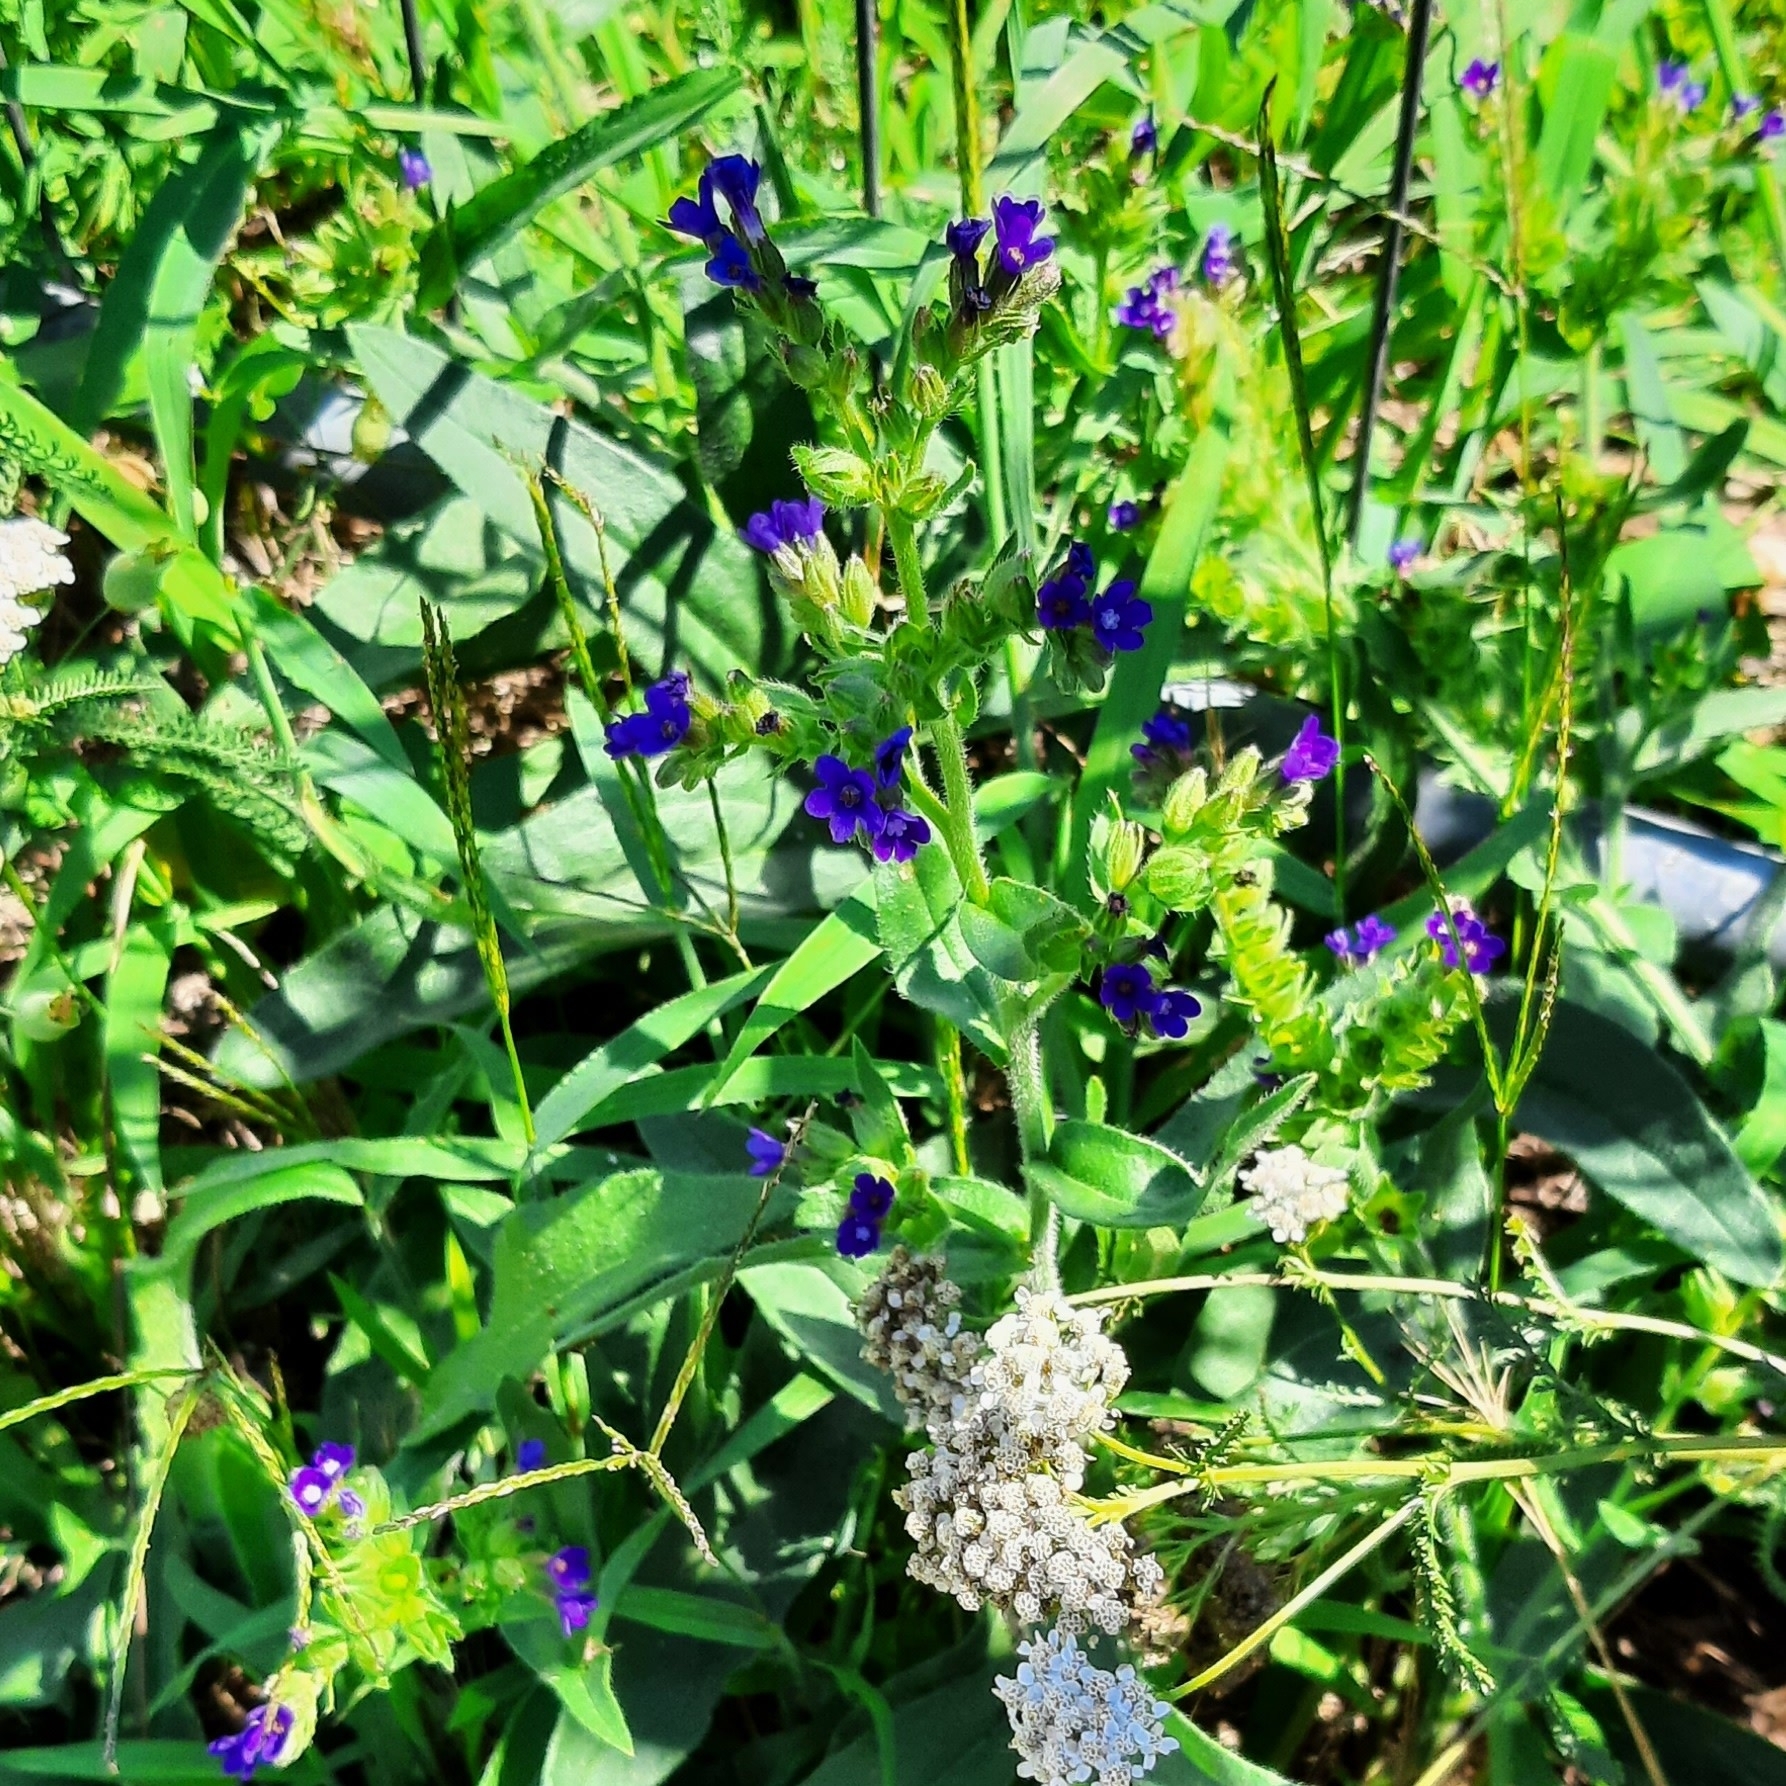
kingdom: Plantae
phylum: Tracheophyta
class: Magnoliopsida
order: Boraginales
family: Boraginaceae
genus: Anchusa
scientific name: Anchusa officinalis
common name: Alkanet
